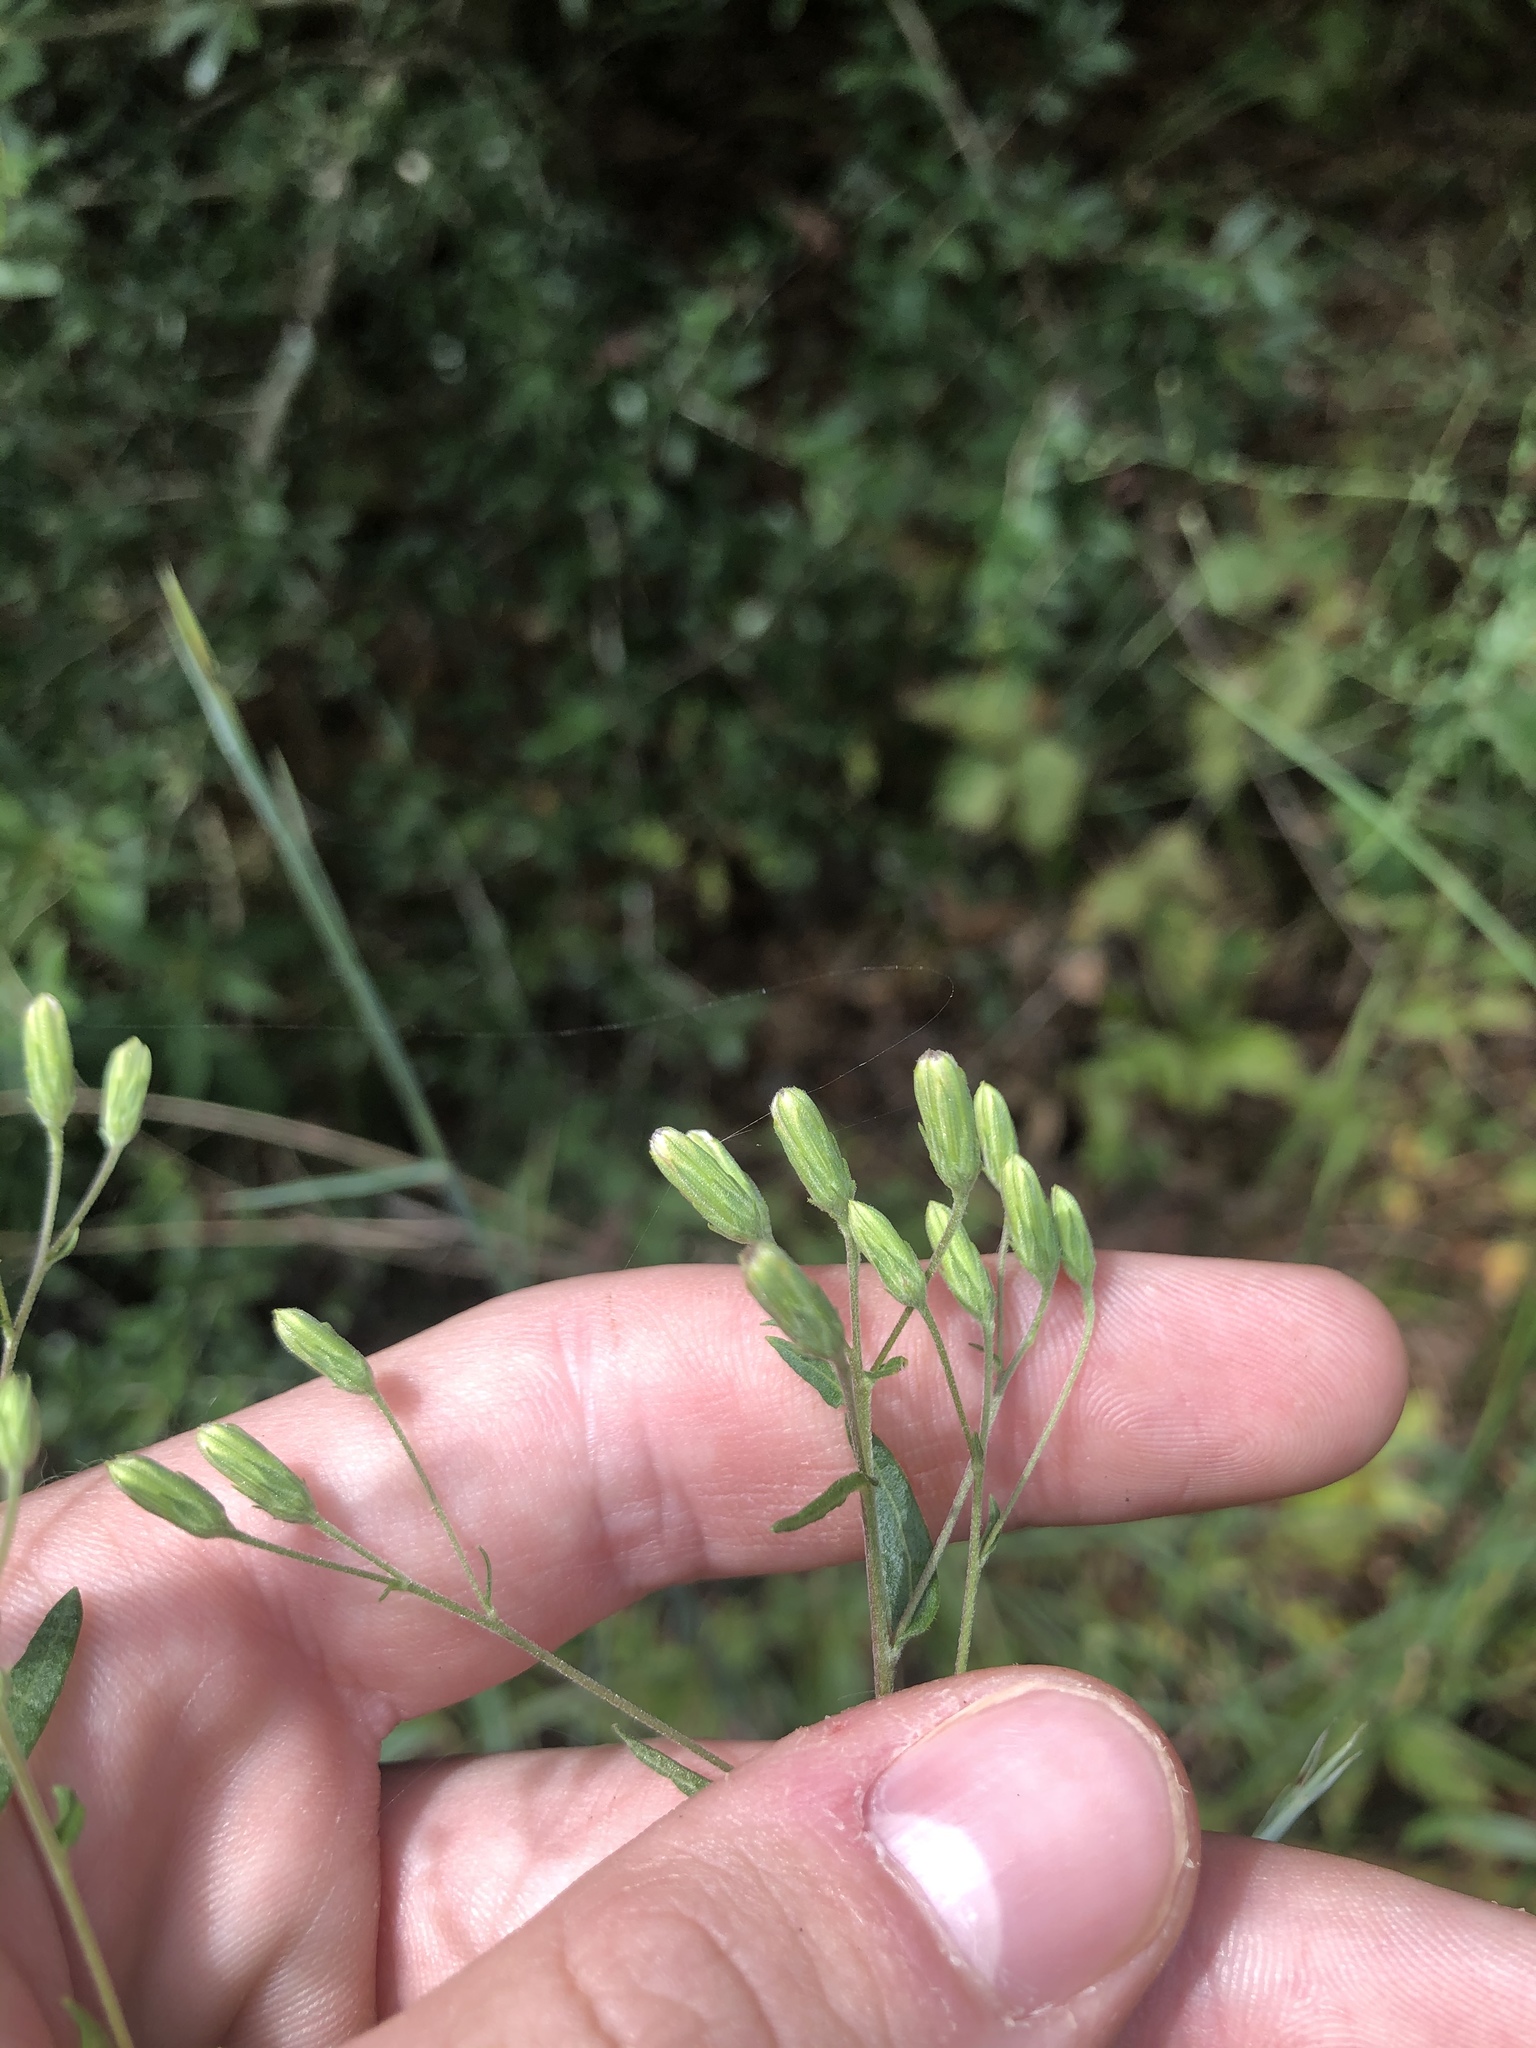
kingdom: Plantae
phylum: Tracheophyta
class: Magnoliopsida
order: Asterales
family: Asteraceae
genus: Brickellia
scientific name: Brickellia eupatorioides
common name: False boneset
